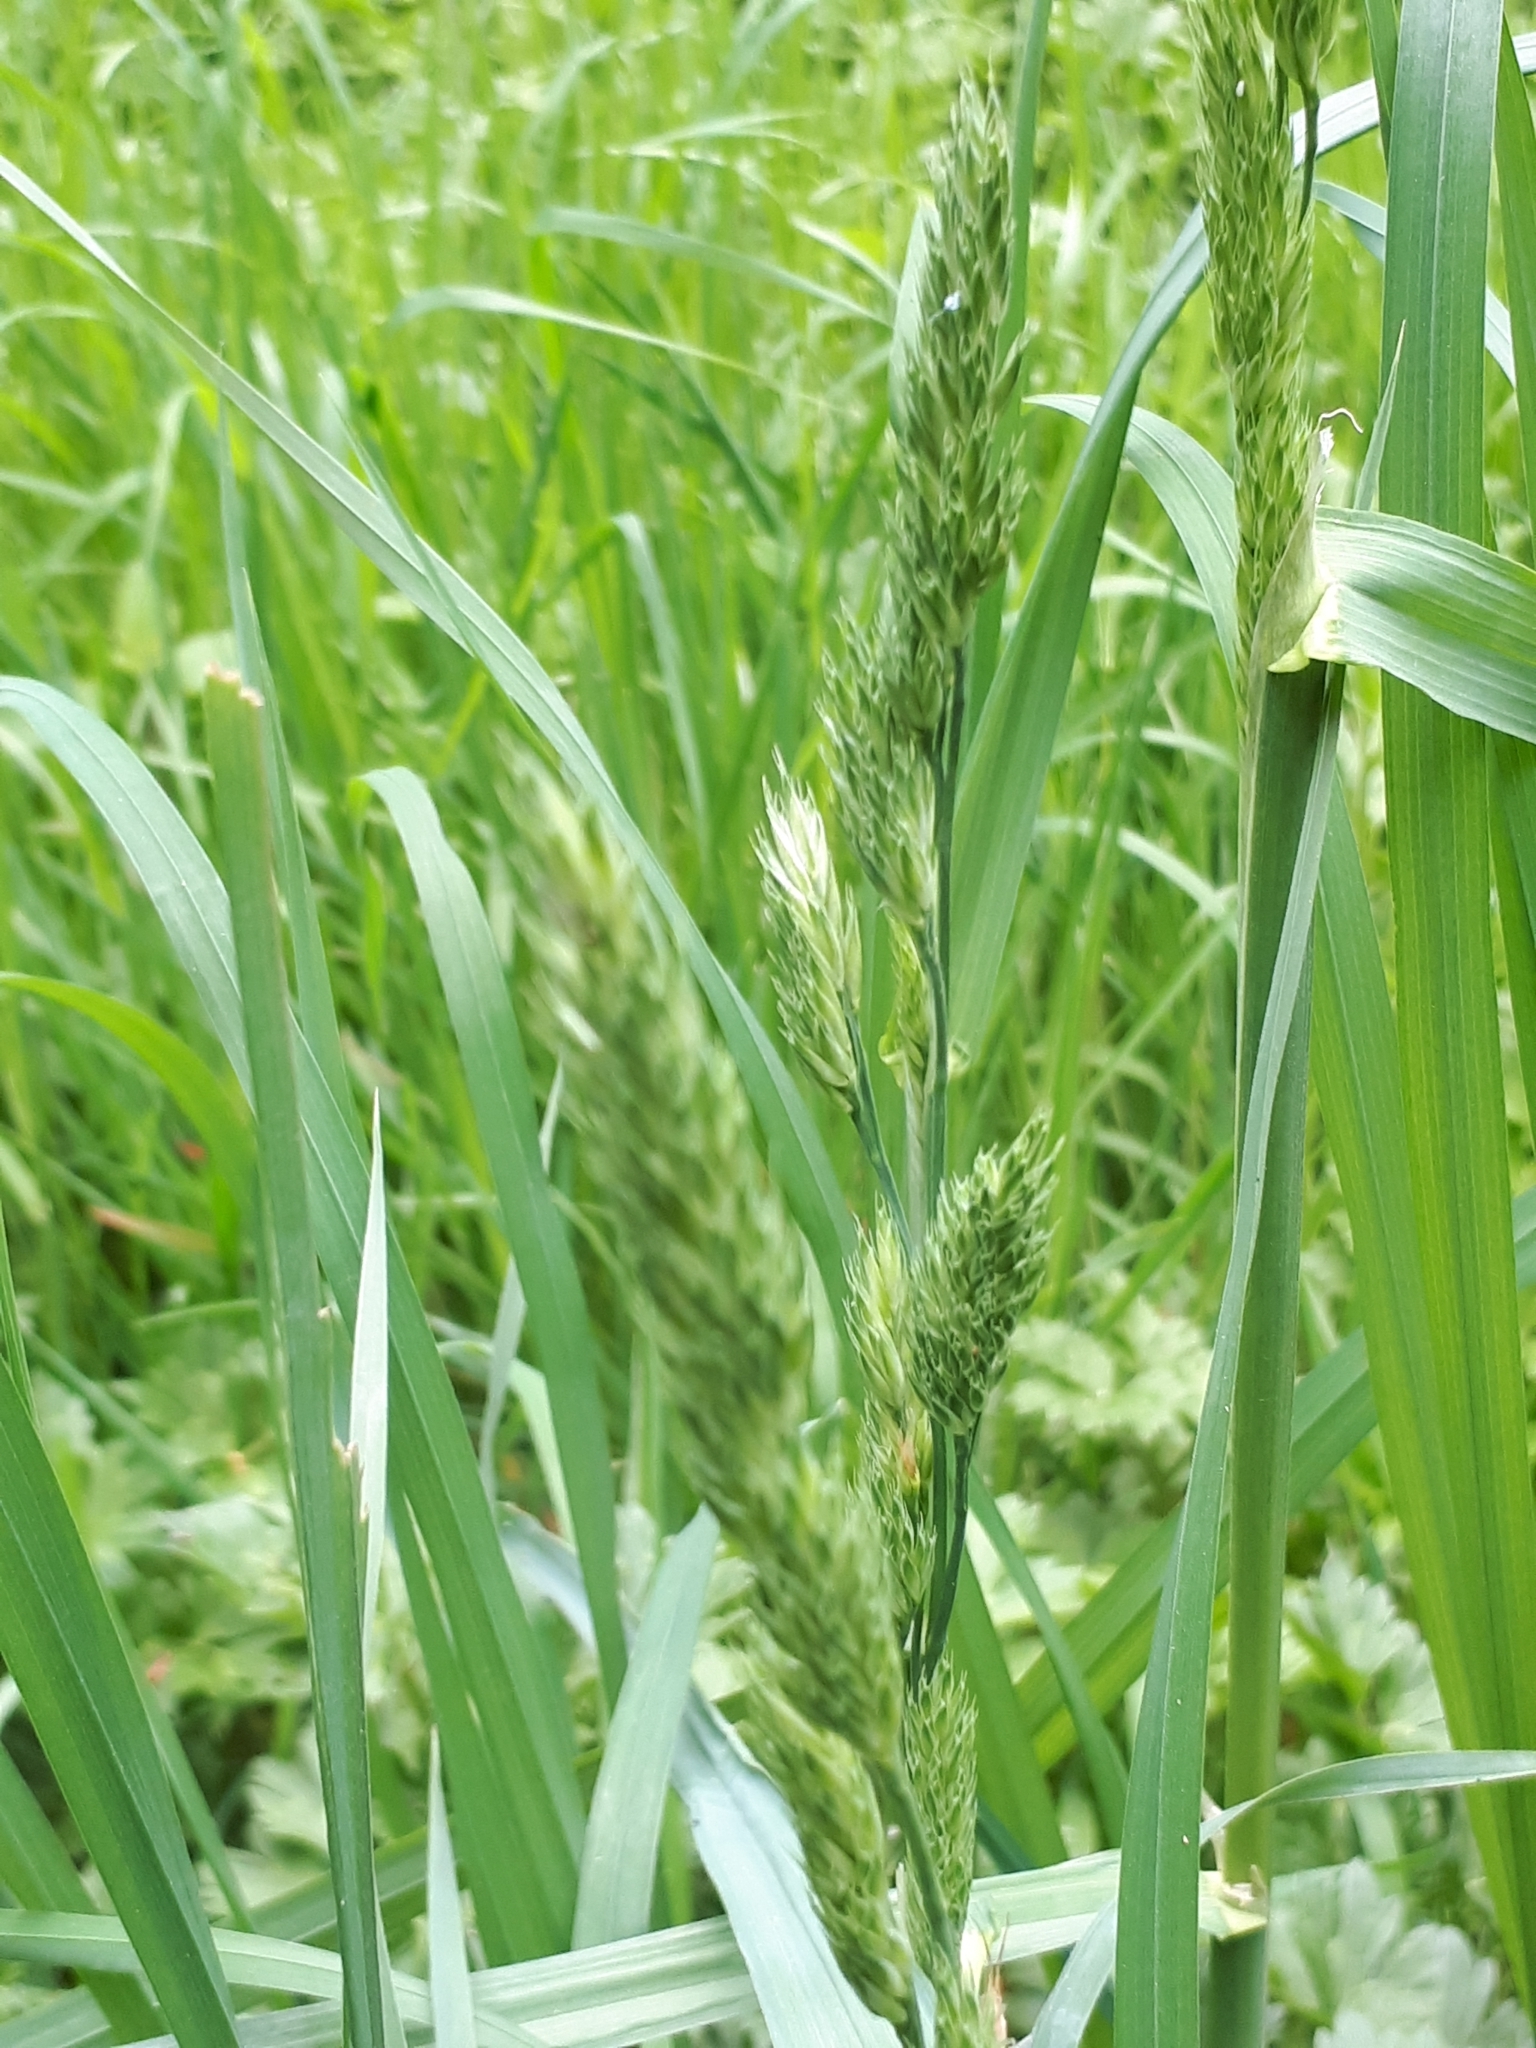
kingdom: Plantae
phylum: Tracheophyta
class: Liliopsida
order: Poales
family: Poaceae
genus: Dactylis
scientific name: Dactylis glomerata
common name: Orchardgrass
